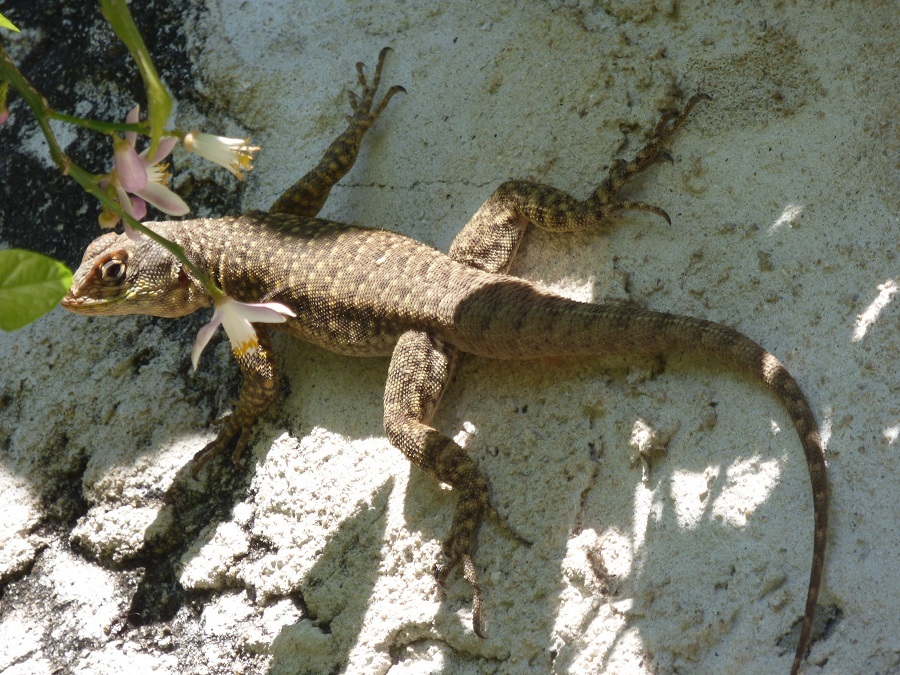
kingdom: Animalia
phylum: Chordata
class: Squamata
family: Tropiduridae
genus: Tropidurus
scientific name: Tropidurus catalanensis
